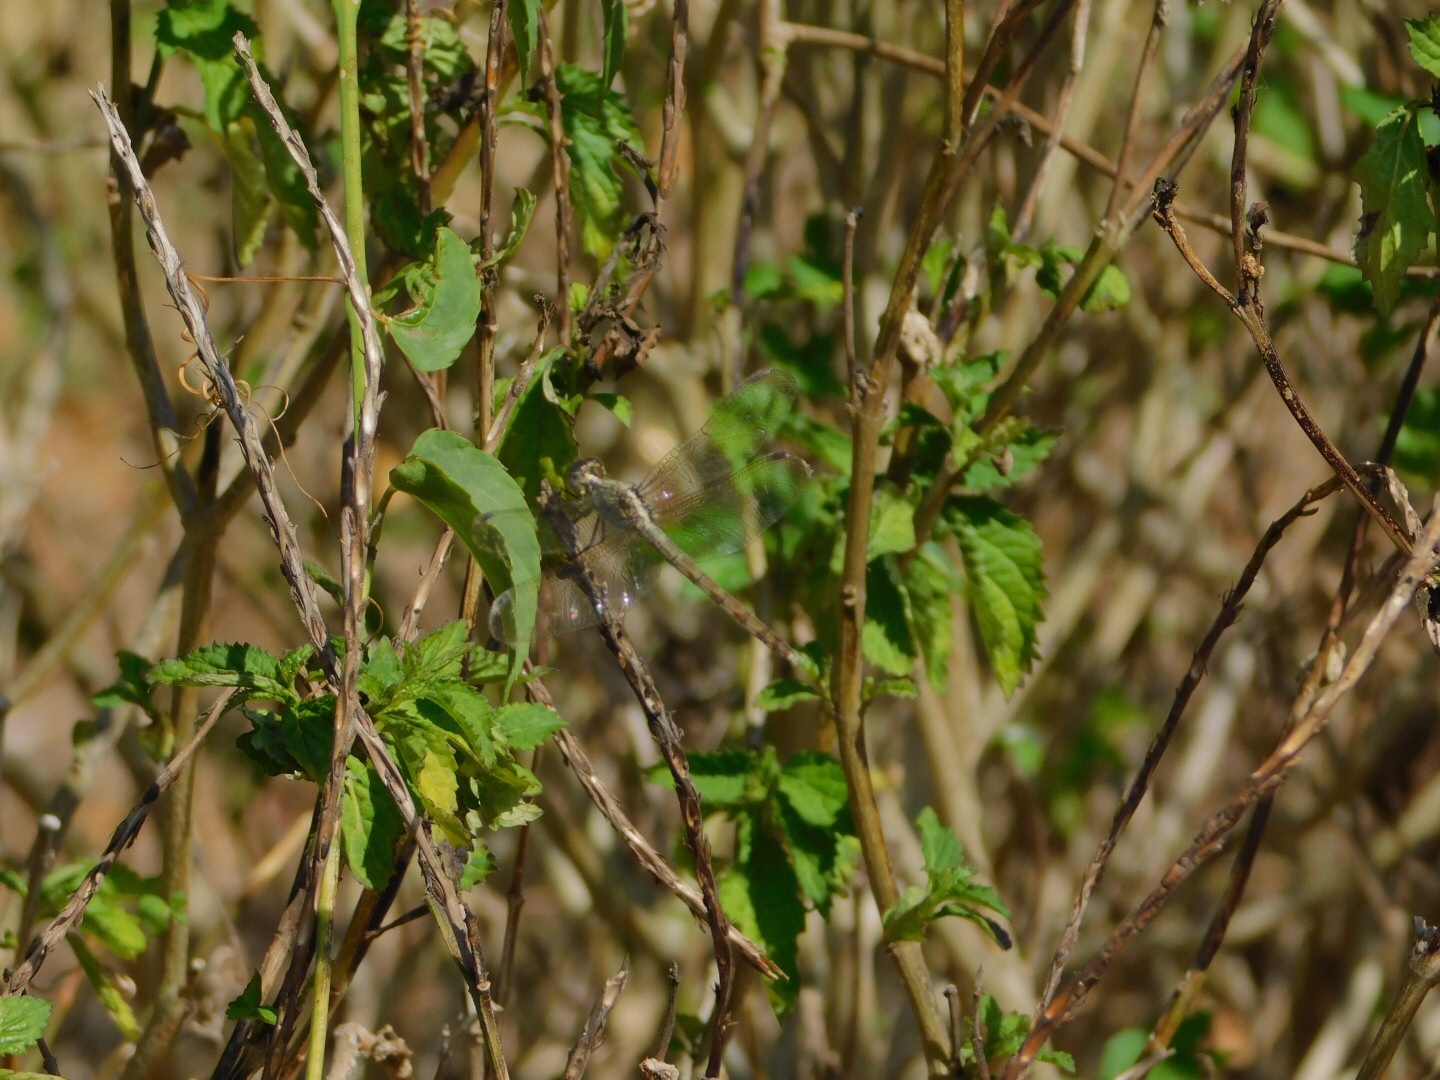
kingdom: Animalia
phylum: Arthropoda
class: Insecta
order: Odonata
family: Libellulidae
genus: Erythrodiplax
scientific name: Erythrodiplax umbrata
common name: Band-winged dragonlet
